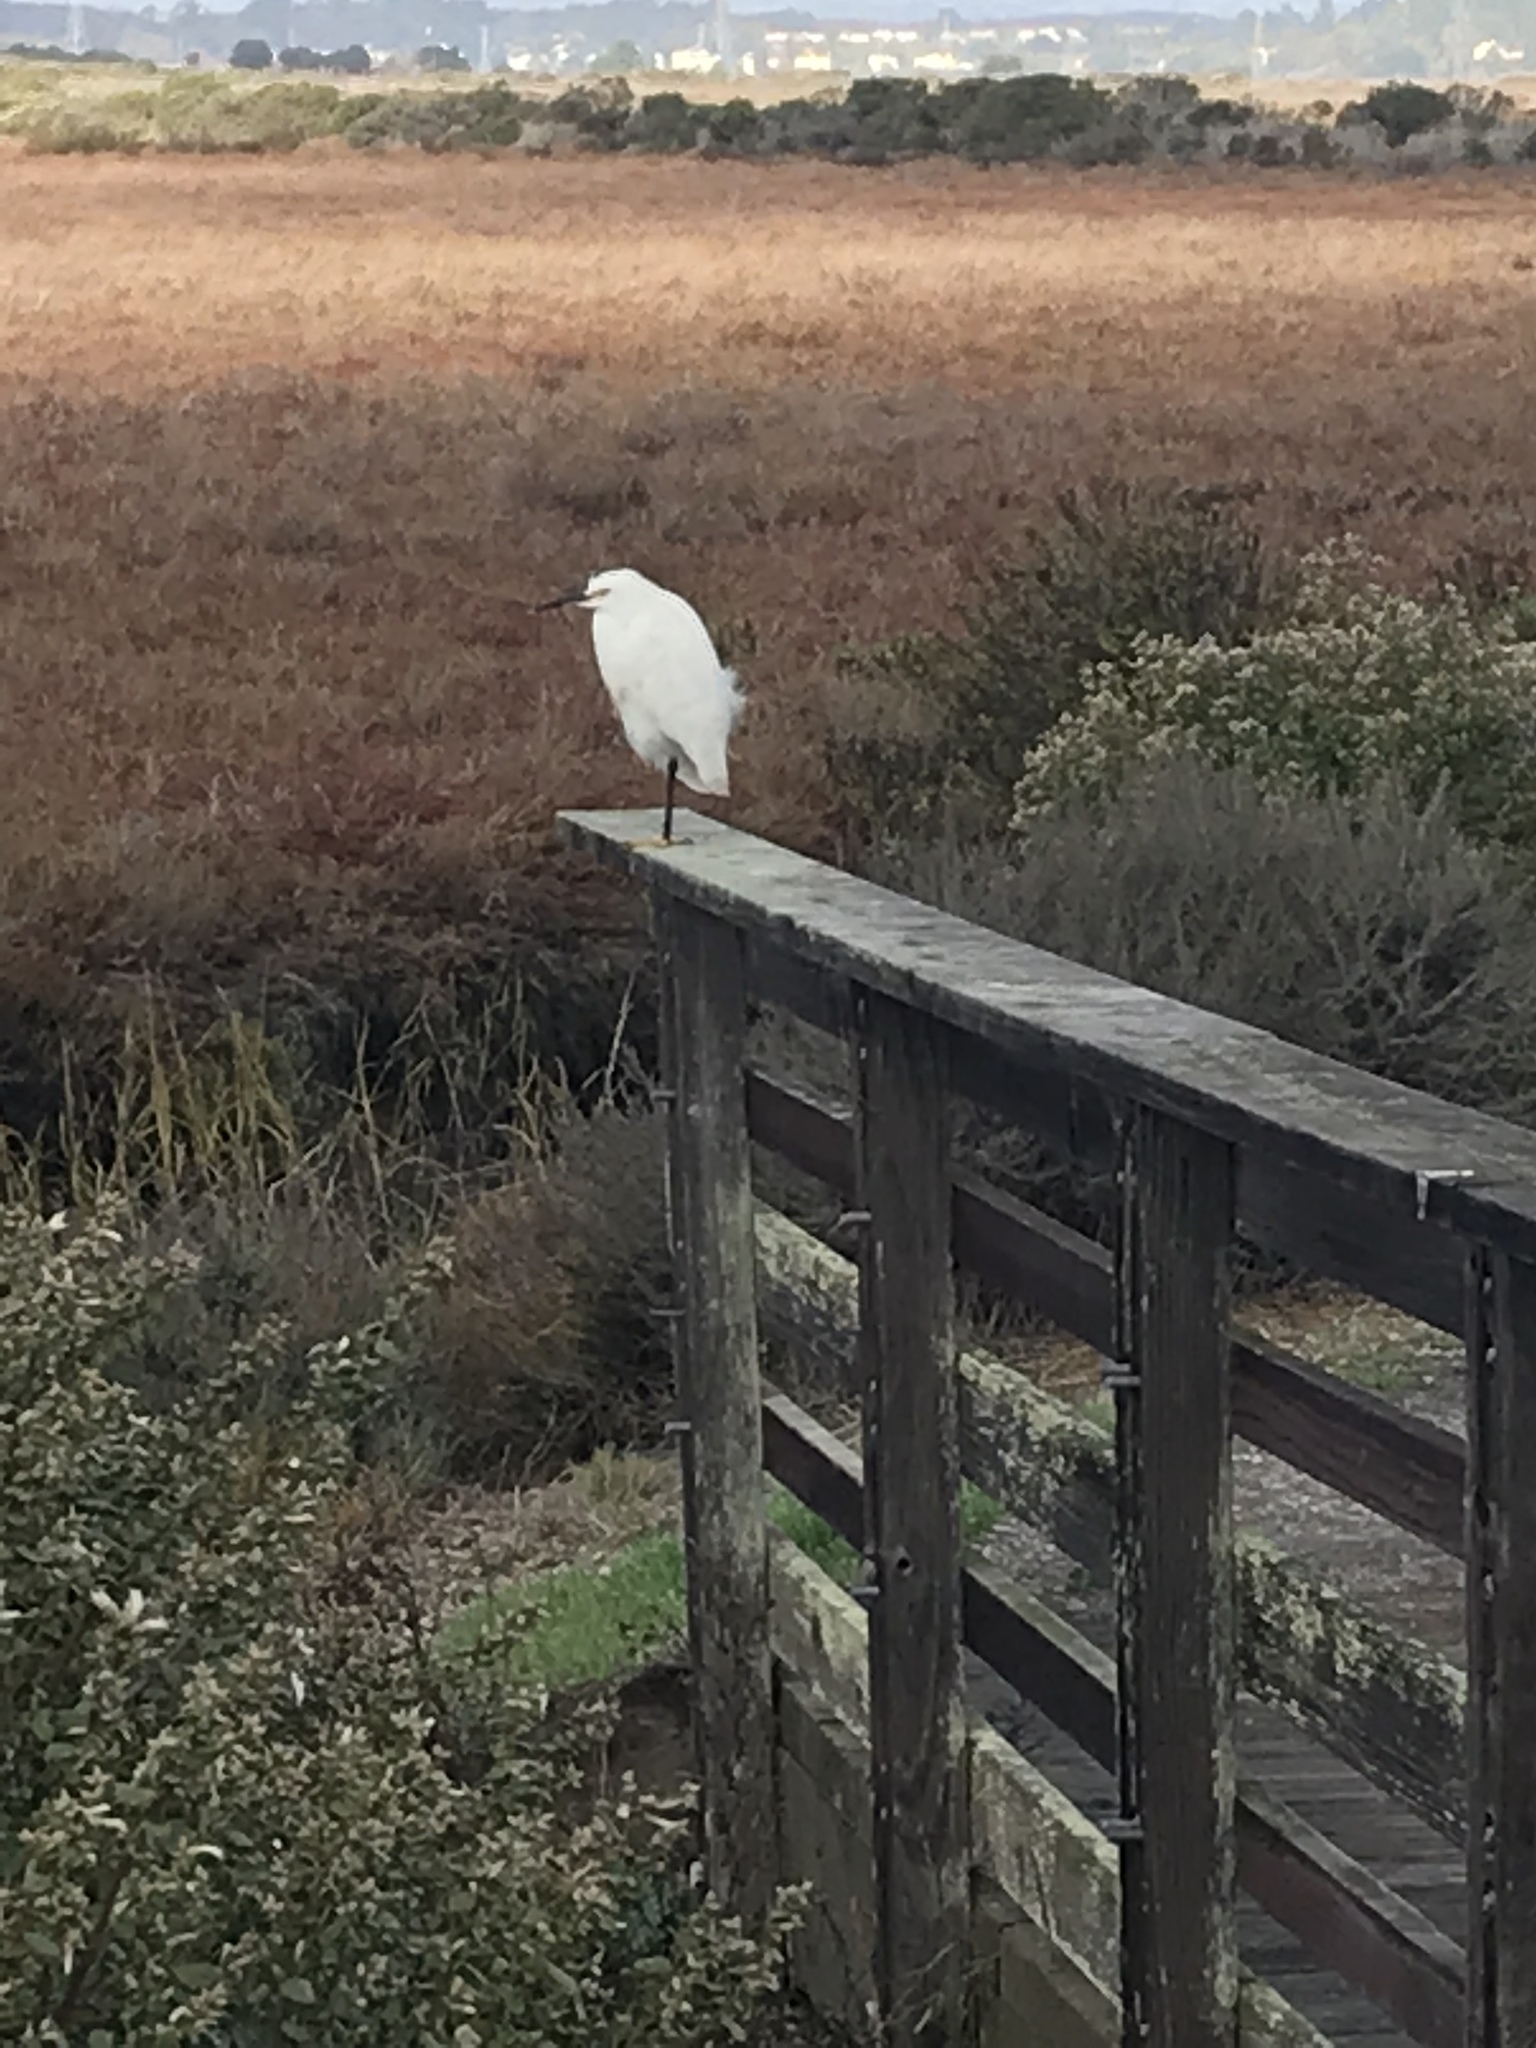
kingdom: Animalia
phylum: Chordata
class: Aves
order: Pelecaniformes
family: Ardeidae
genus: Egretta
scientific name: Egretta thula
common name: Snowy egret
